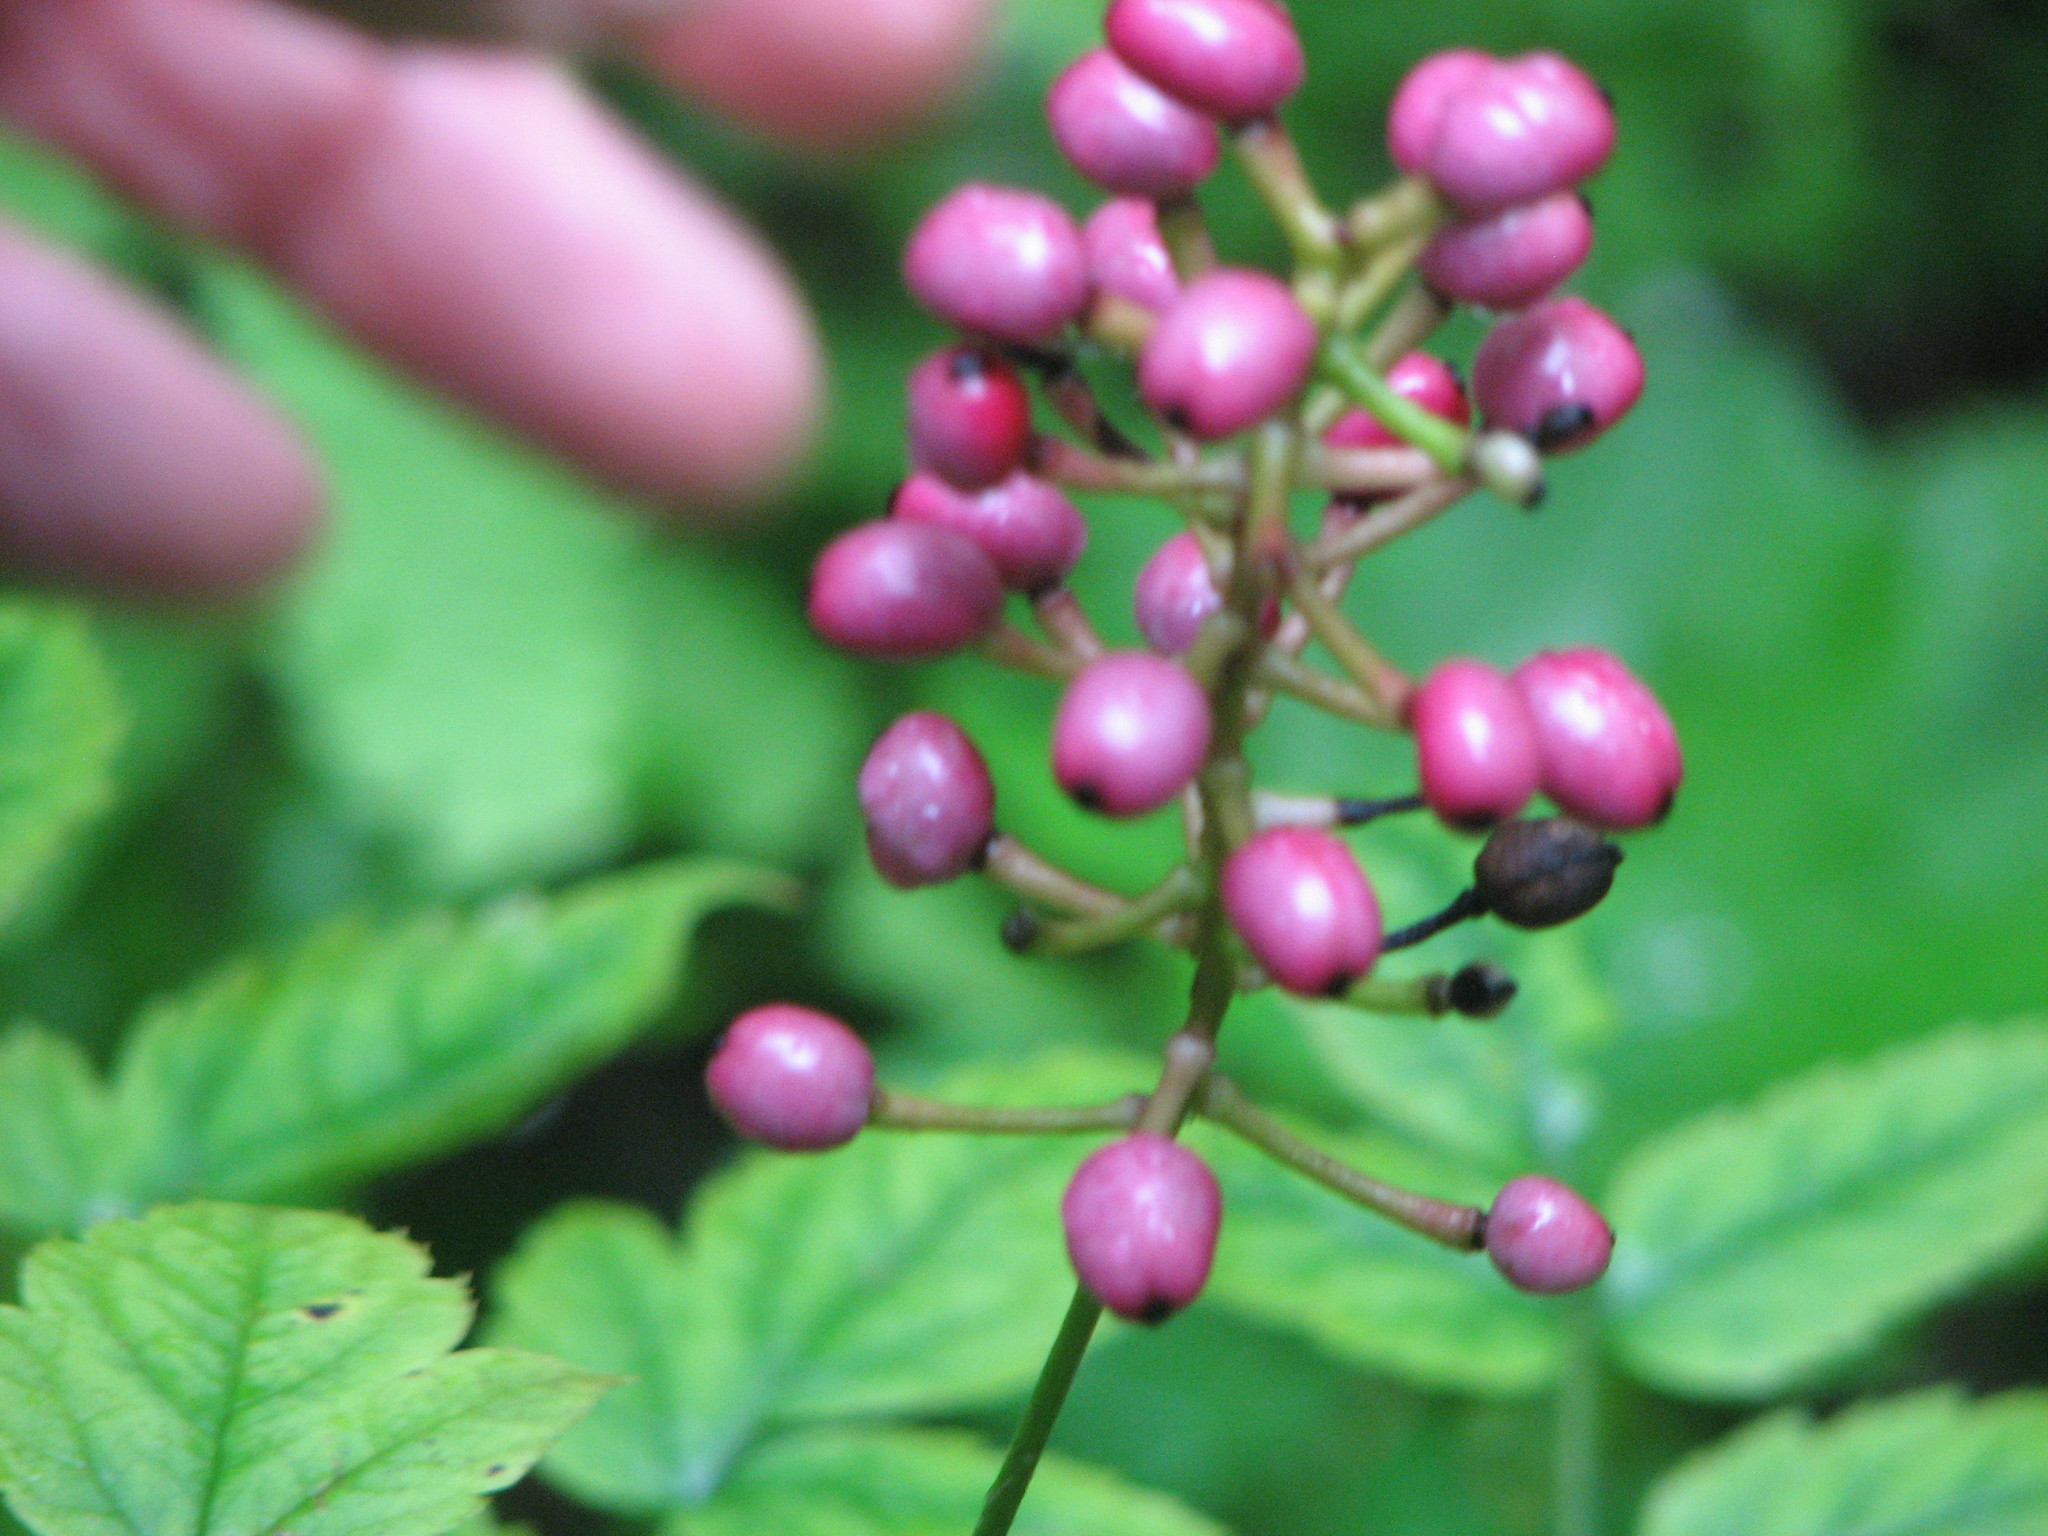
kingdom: Plantae
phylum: Tracheophyta
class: Magnoliopsida
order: Ranunculales
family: Ranunculaceae
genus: Actaea
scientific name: Actaea pachypoda
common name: Doll's-eyes
